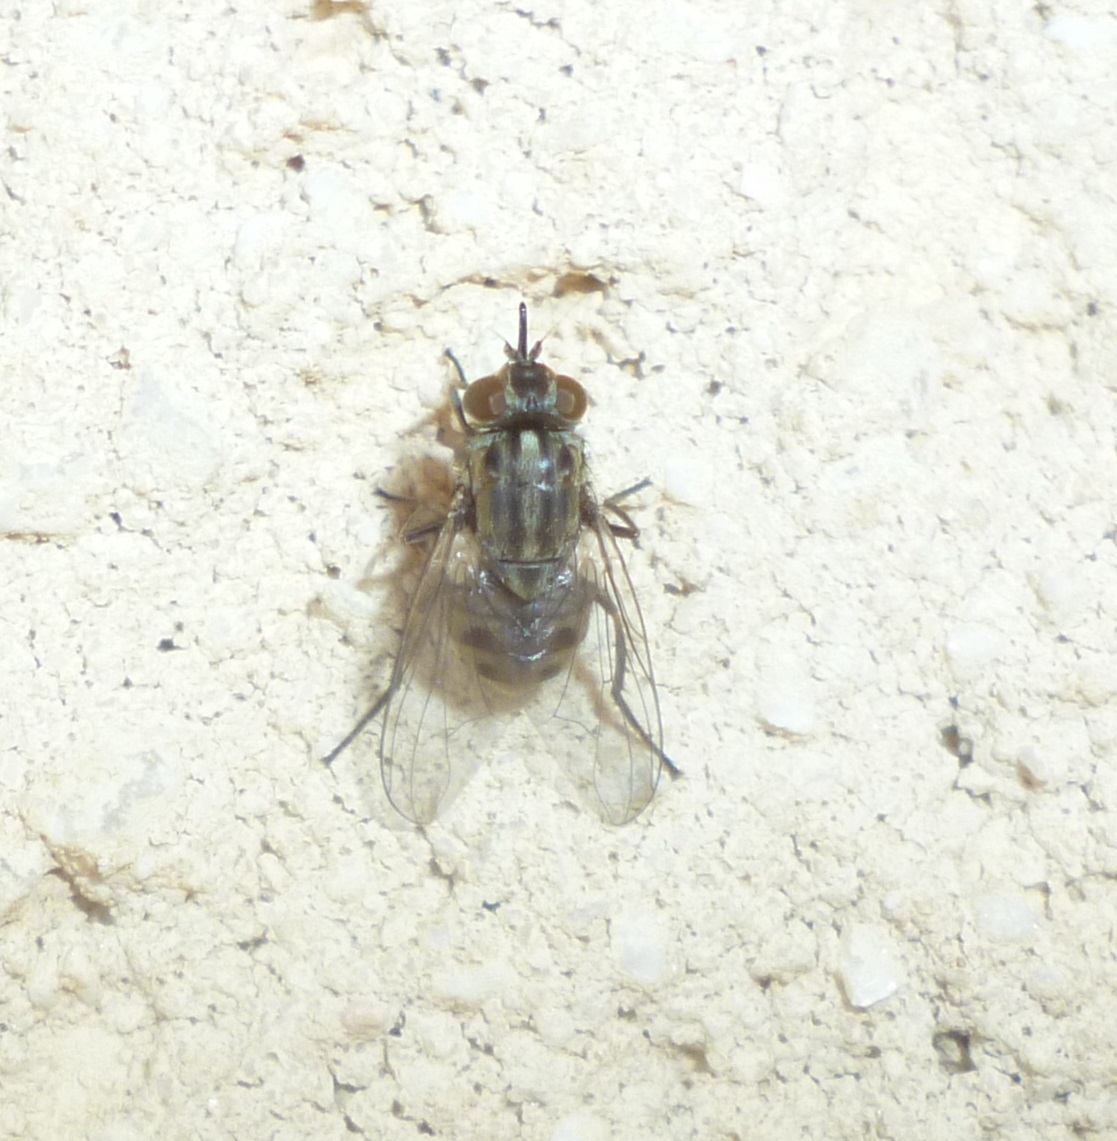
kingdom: Animalia
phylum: Arthropoda
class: Insecta
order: Diptera
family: Muscidae
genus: Stomoxys
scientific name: Stomoxys calcitrans
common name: Stable fly
